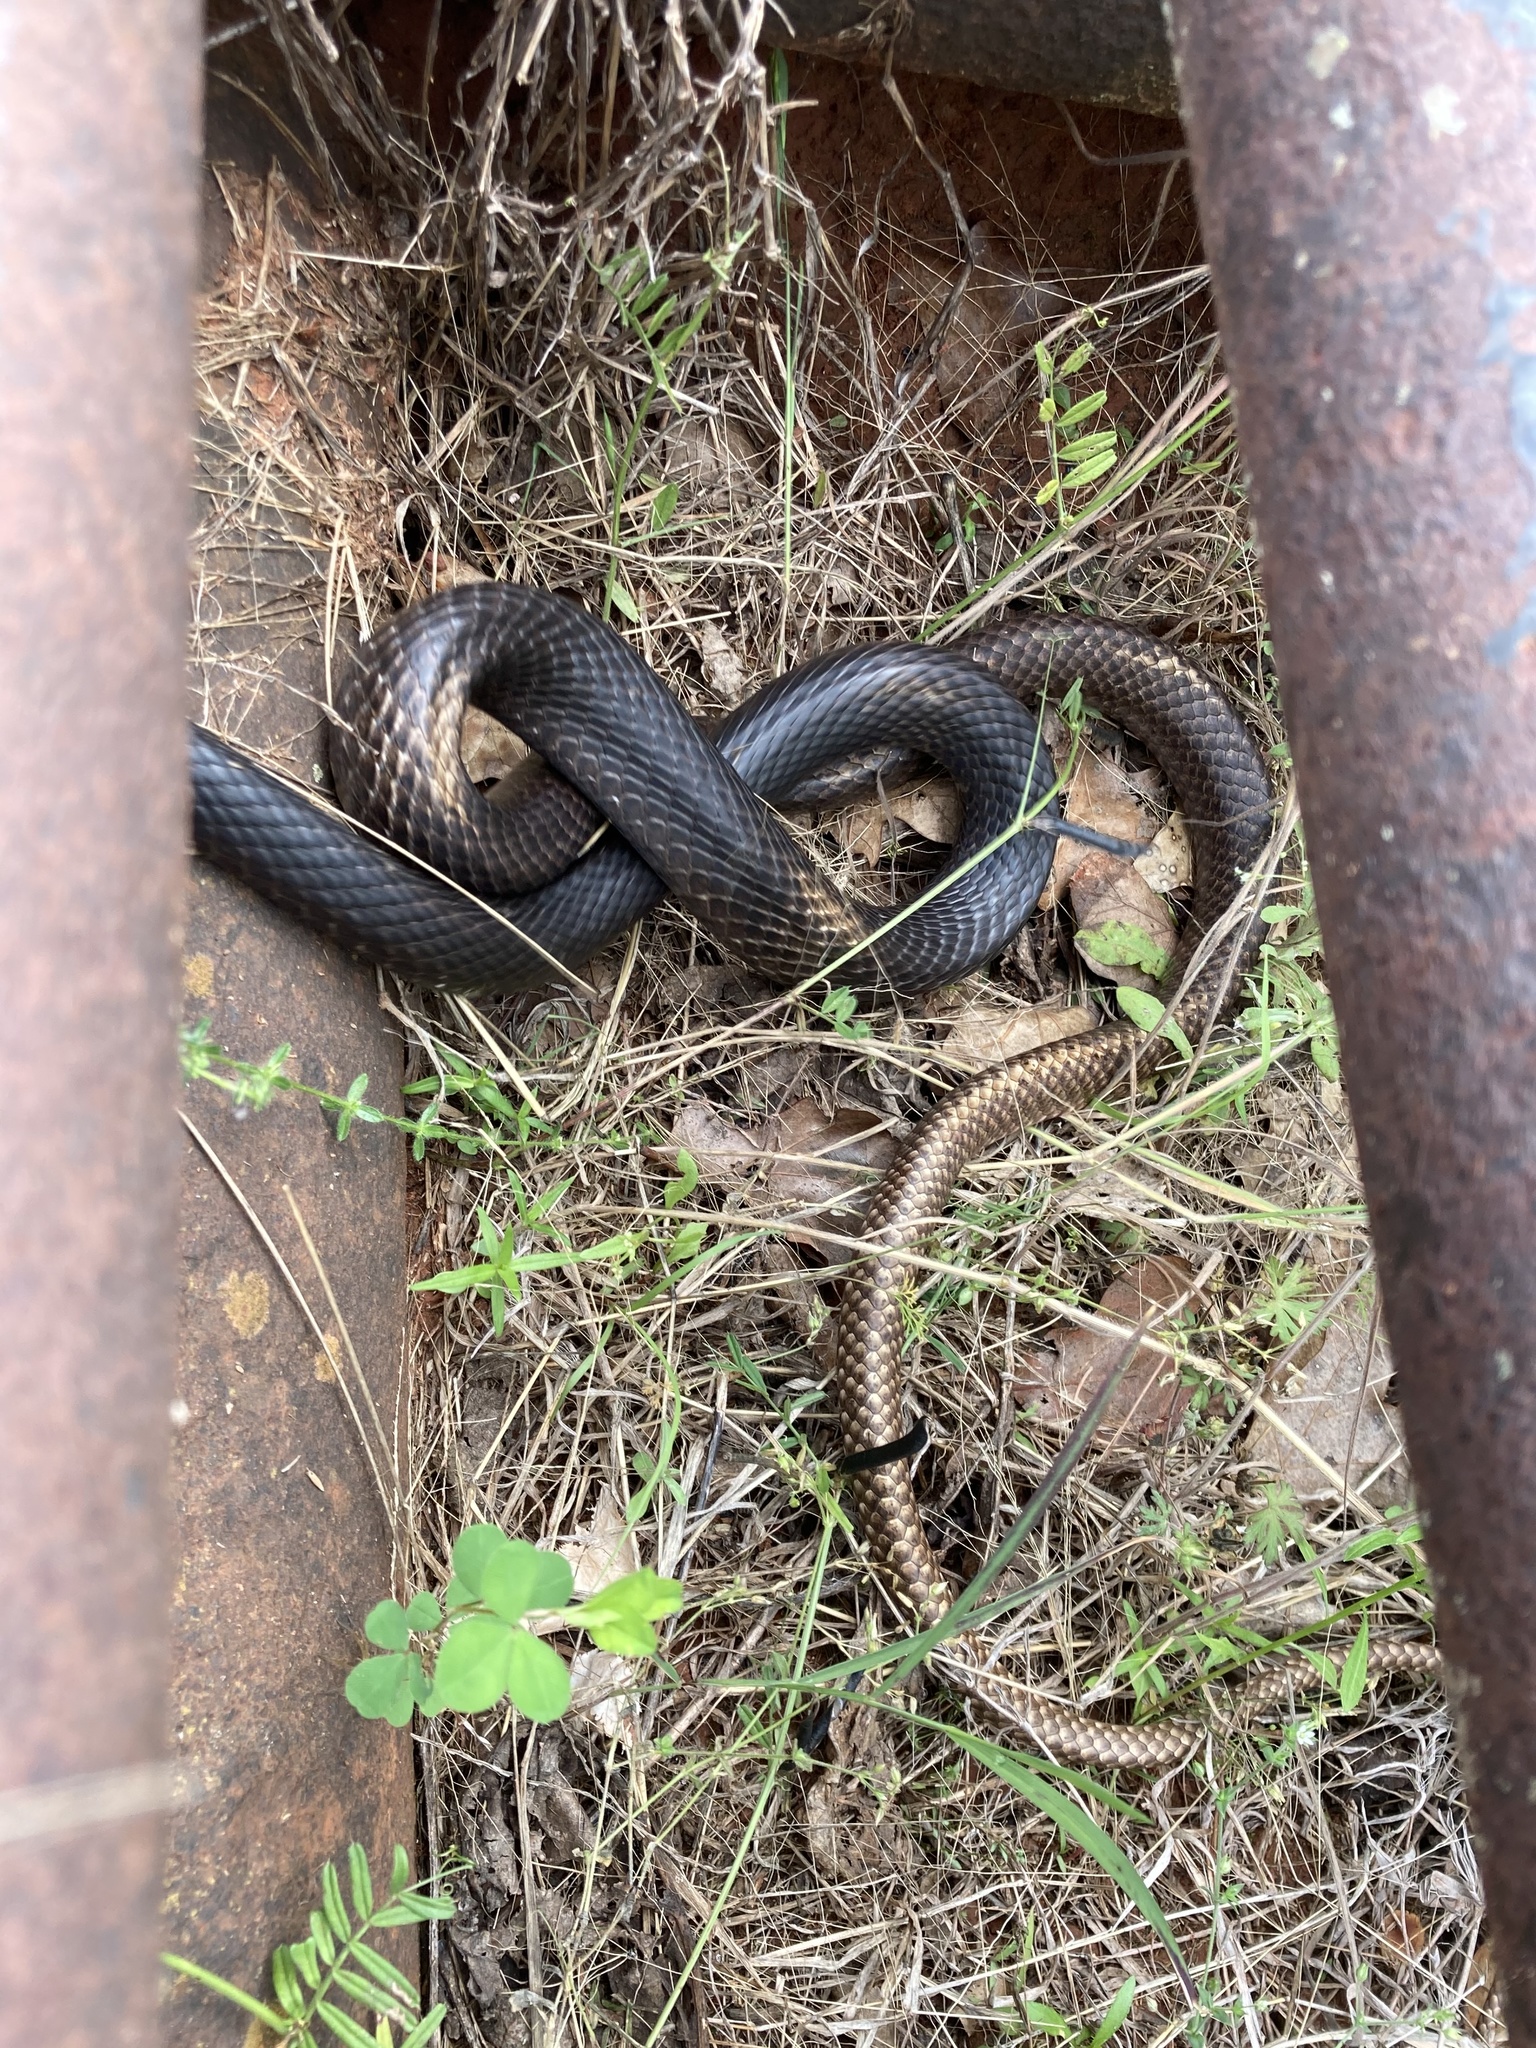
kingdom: Animalia
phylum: Chordata
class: Squamata
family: Colubridae
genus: Masticophis
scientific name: Masticophis flagellum
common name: Coachwhip
